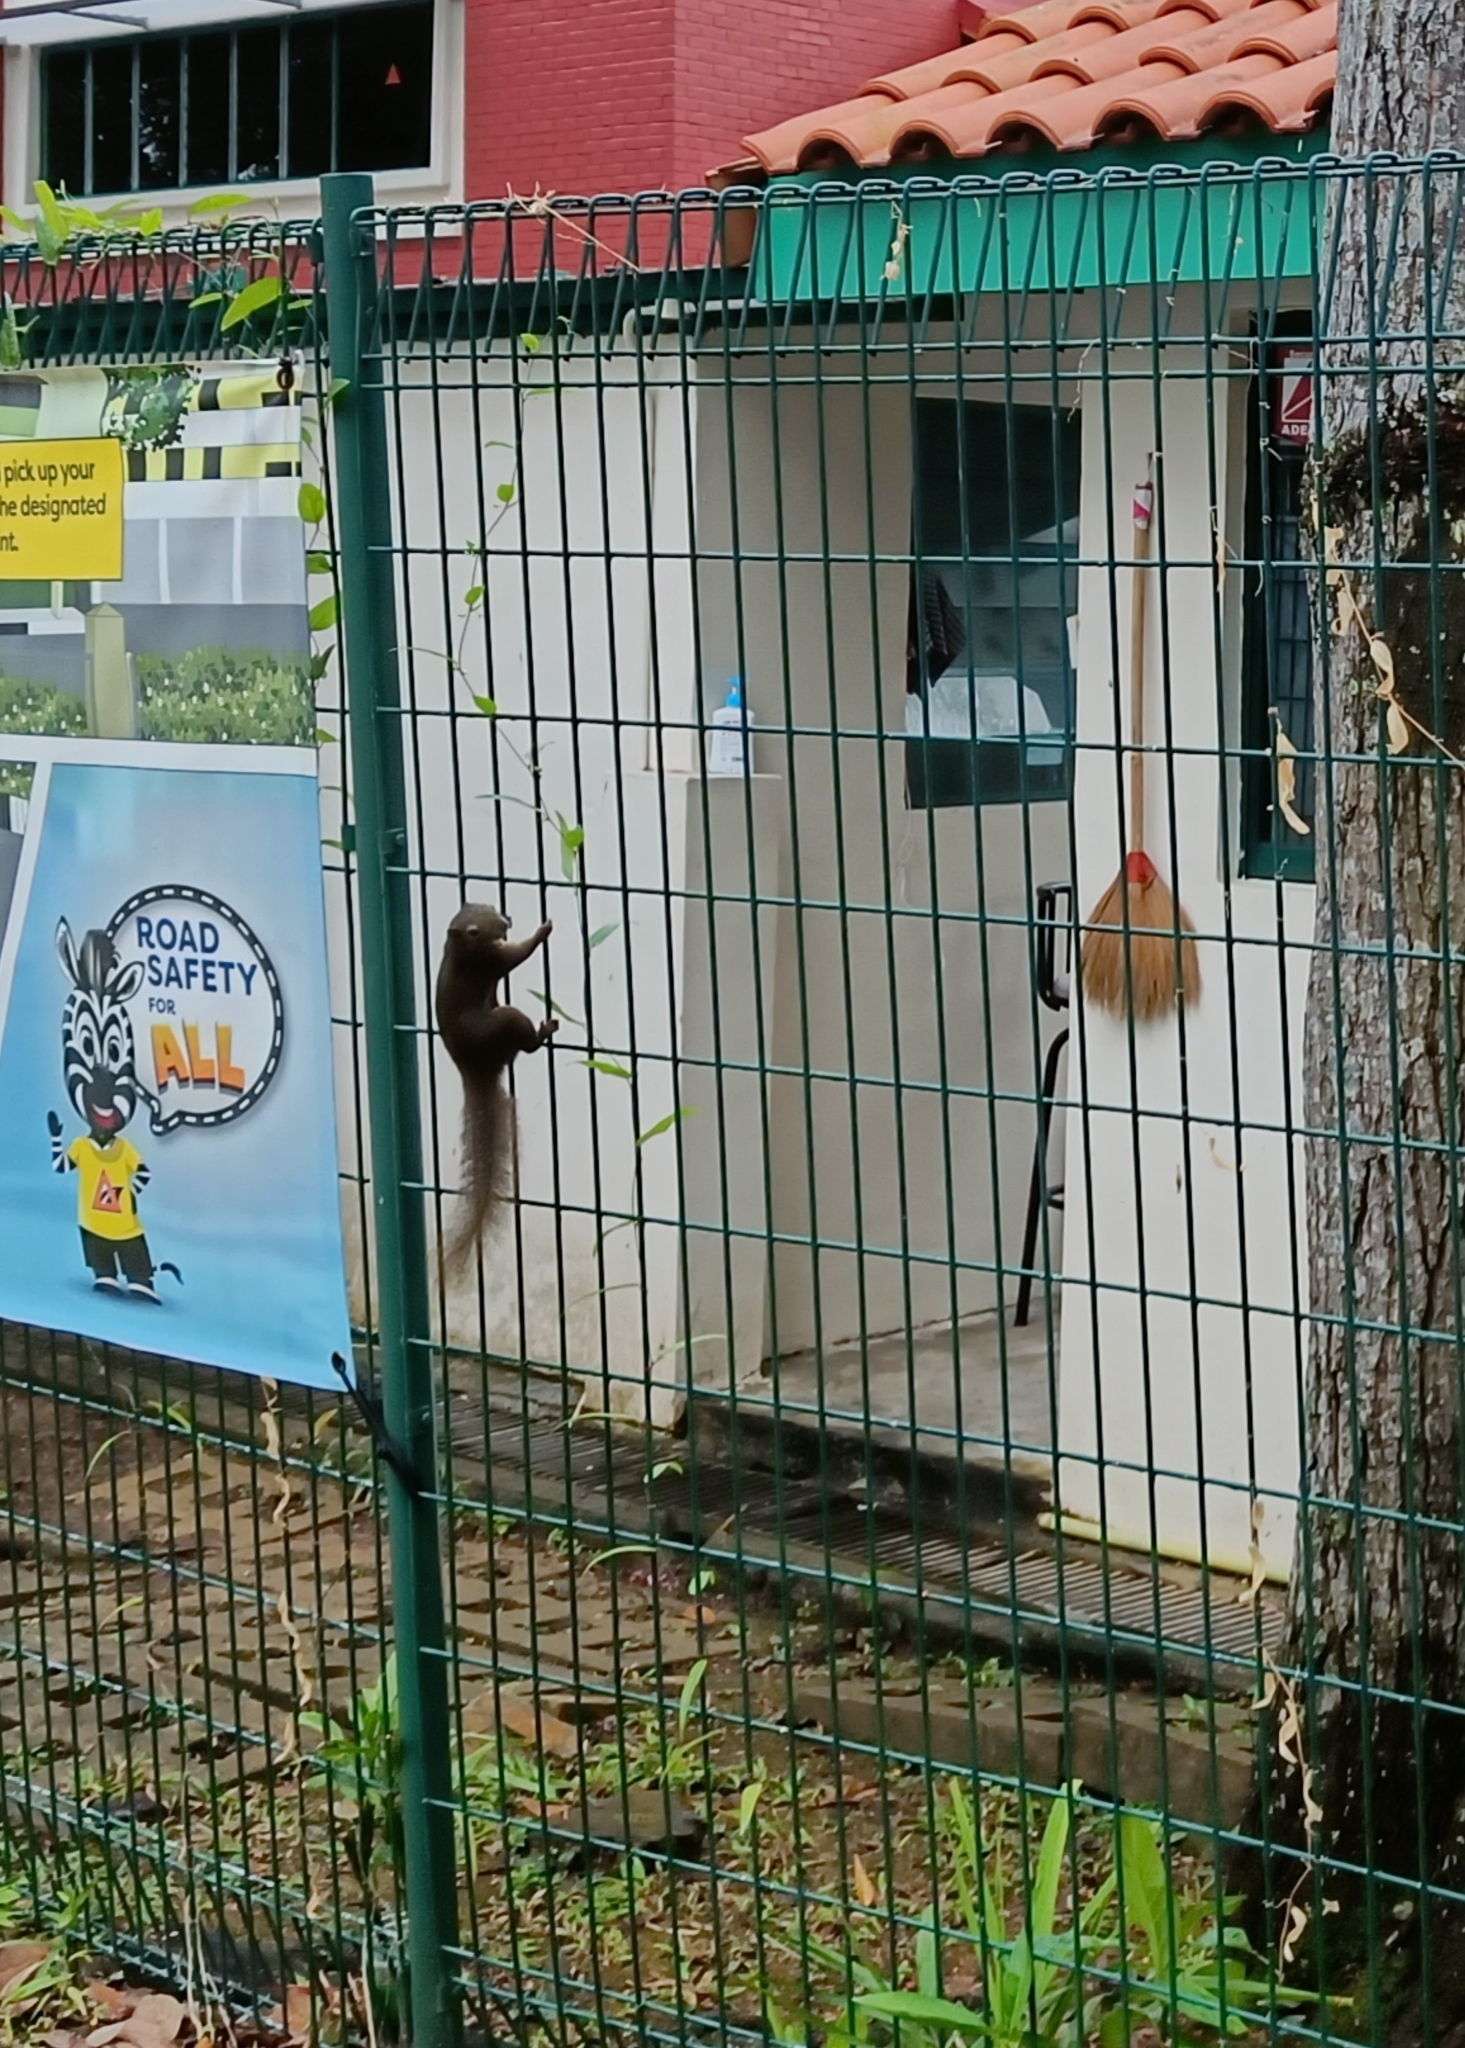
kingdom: Animalia
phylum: Chordata
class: Mammalia
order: Rodentia
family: Sciuridae
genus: Callosciurus
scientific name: Callosciurus notatus
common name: Plantain squirrel
